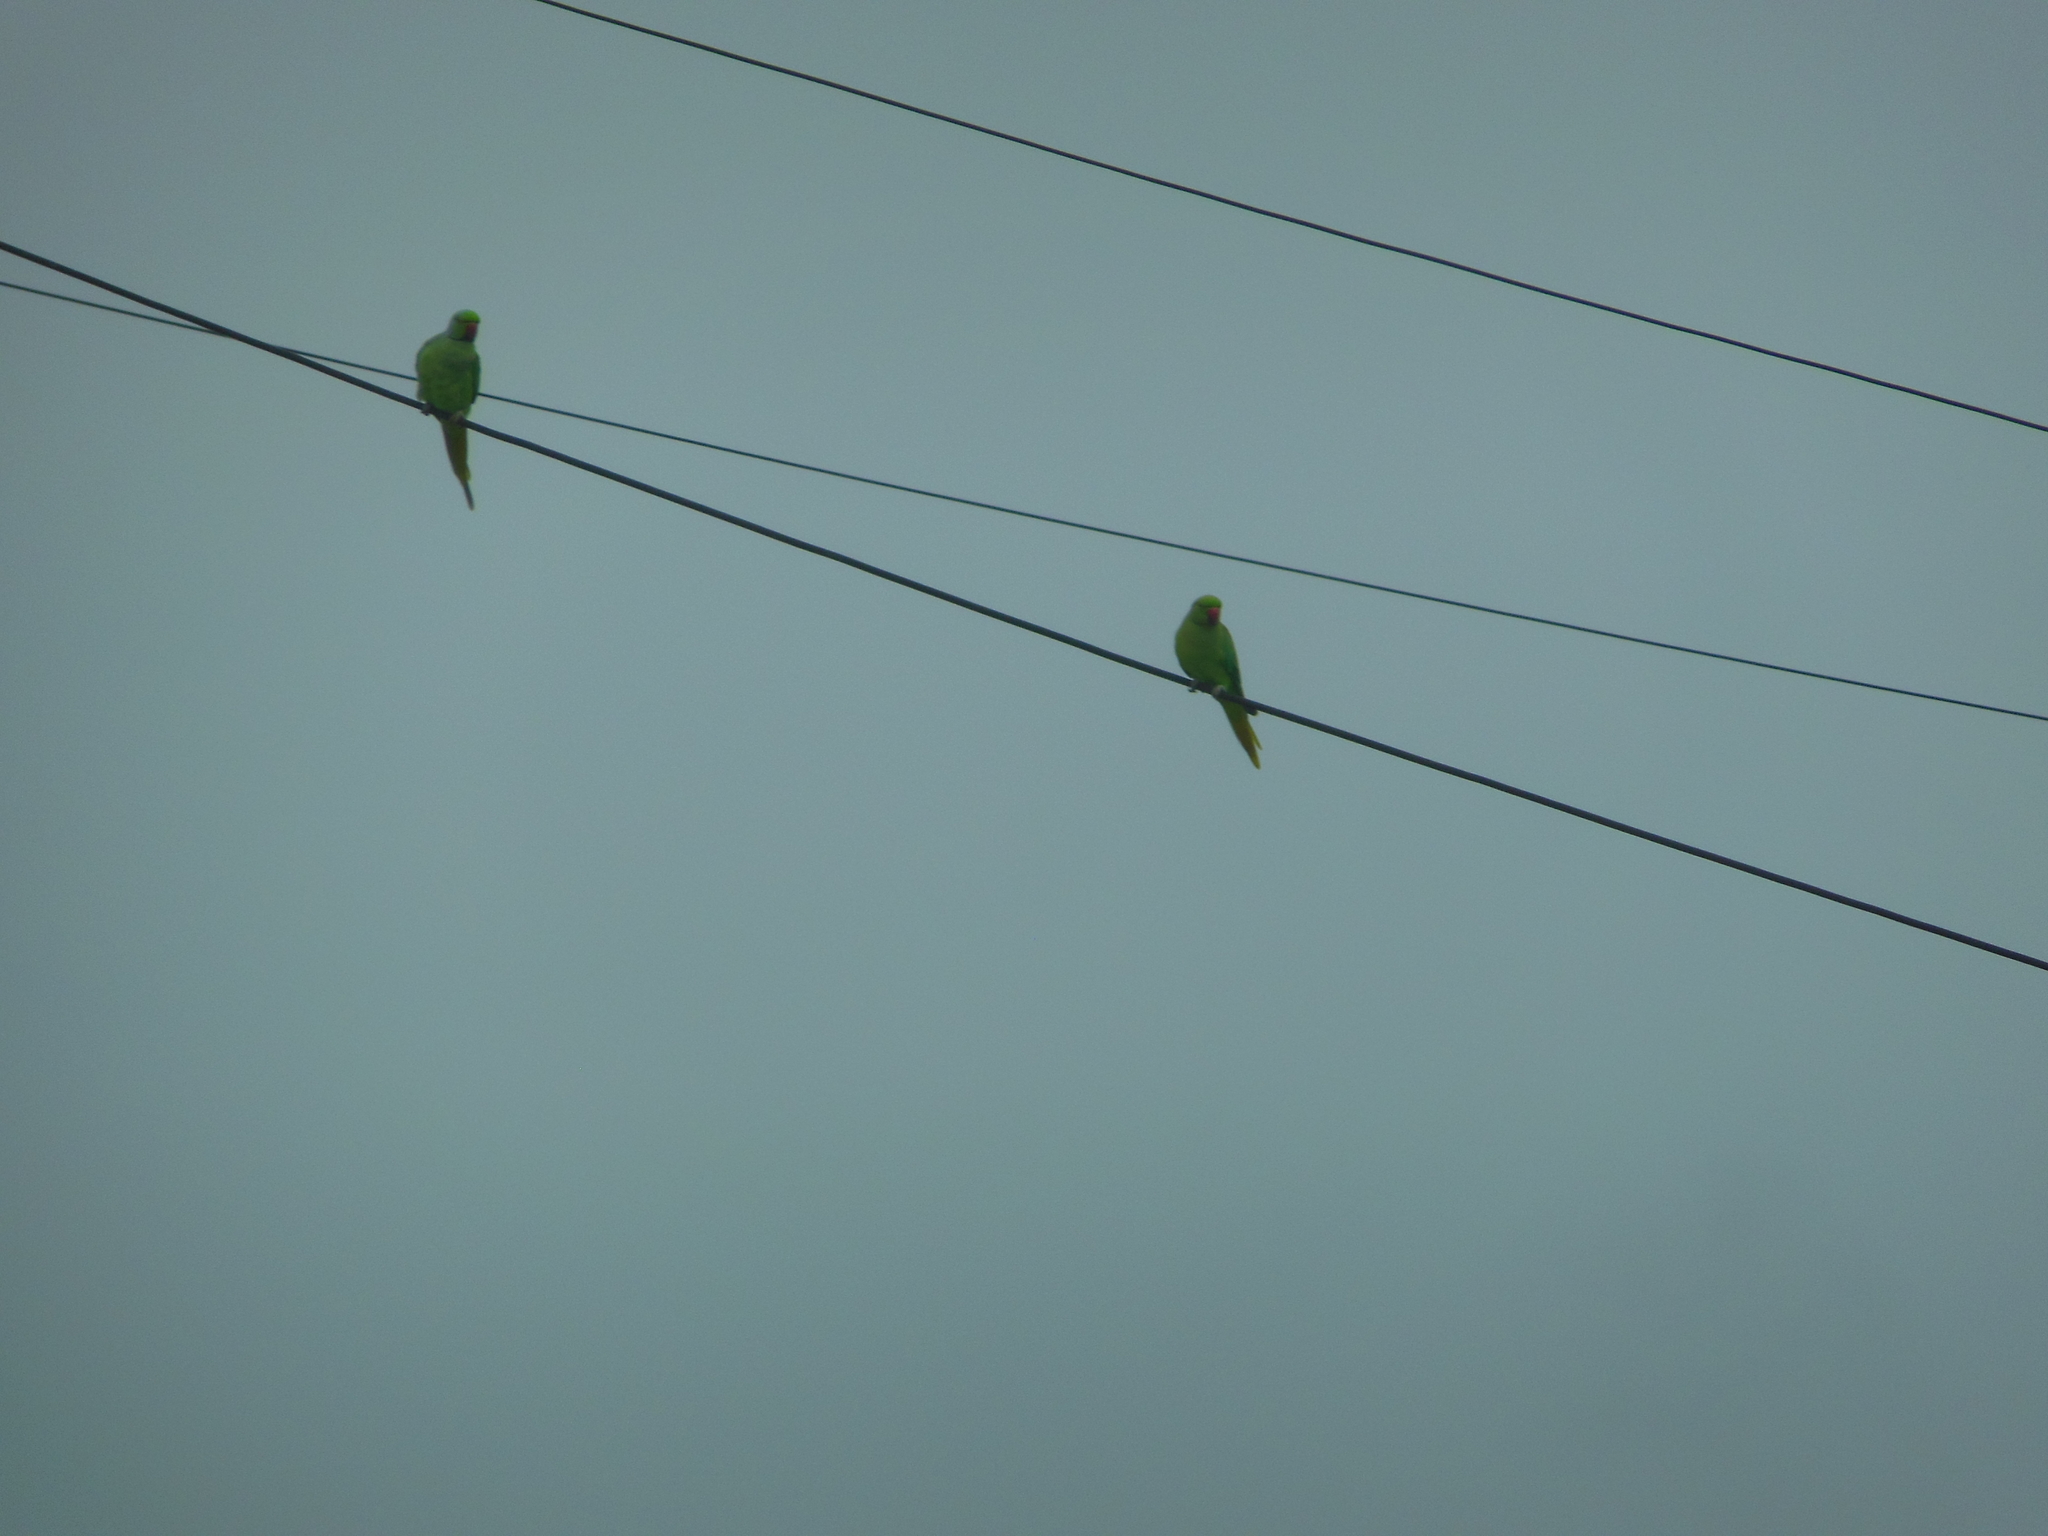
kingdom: Animalia
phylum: Chordata
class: Aves
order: Psittaciformes
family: Psittacidae
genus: Psittacula
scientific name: Psittacula krameri
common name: Rose-ringed parakeet
